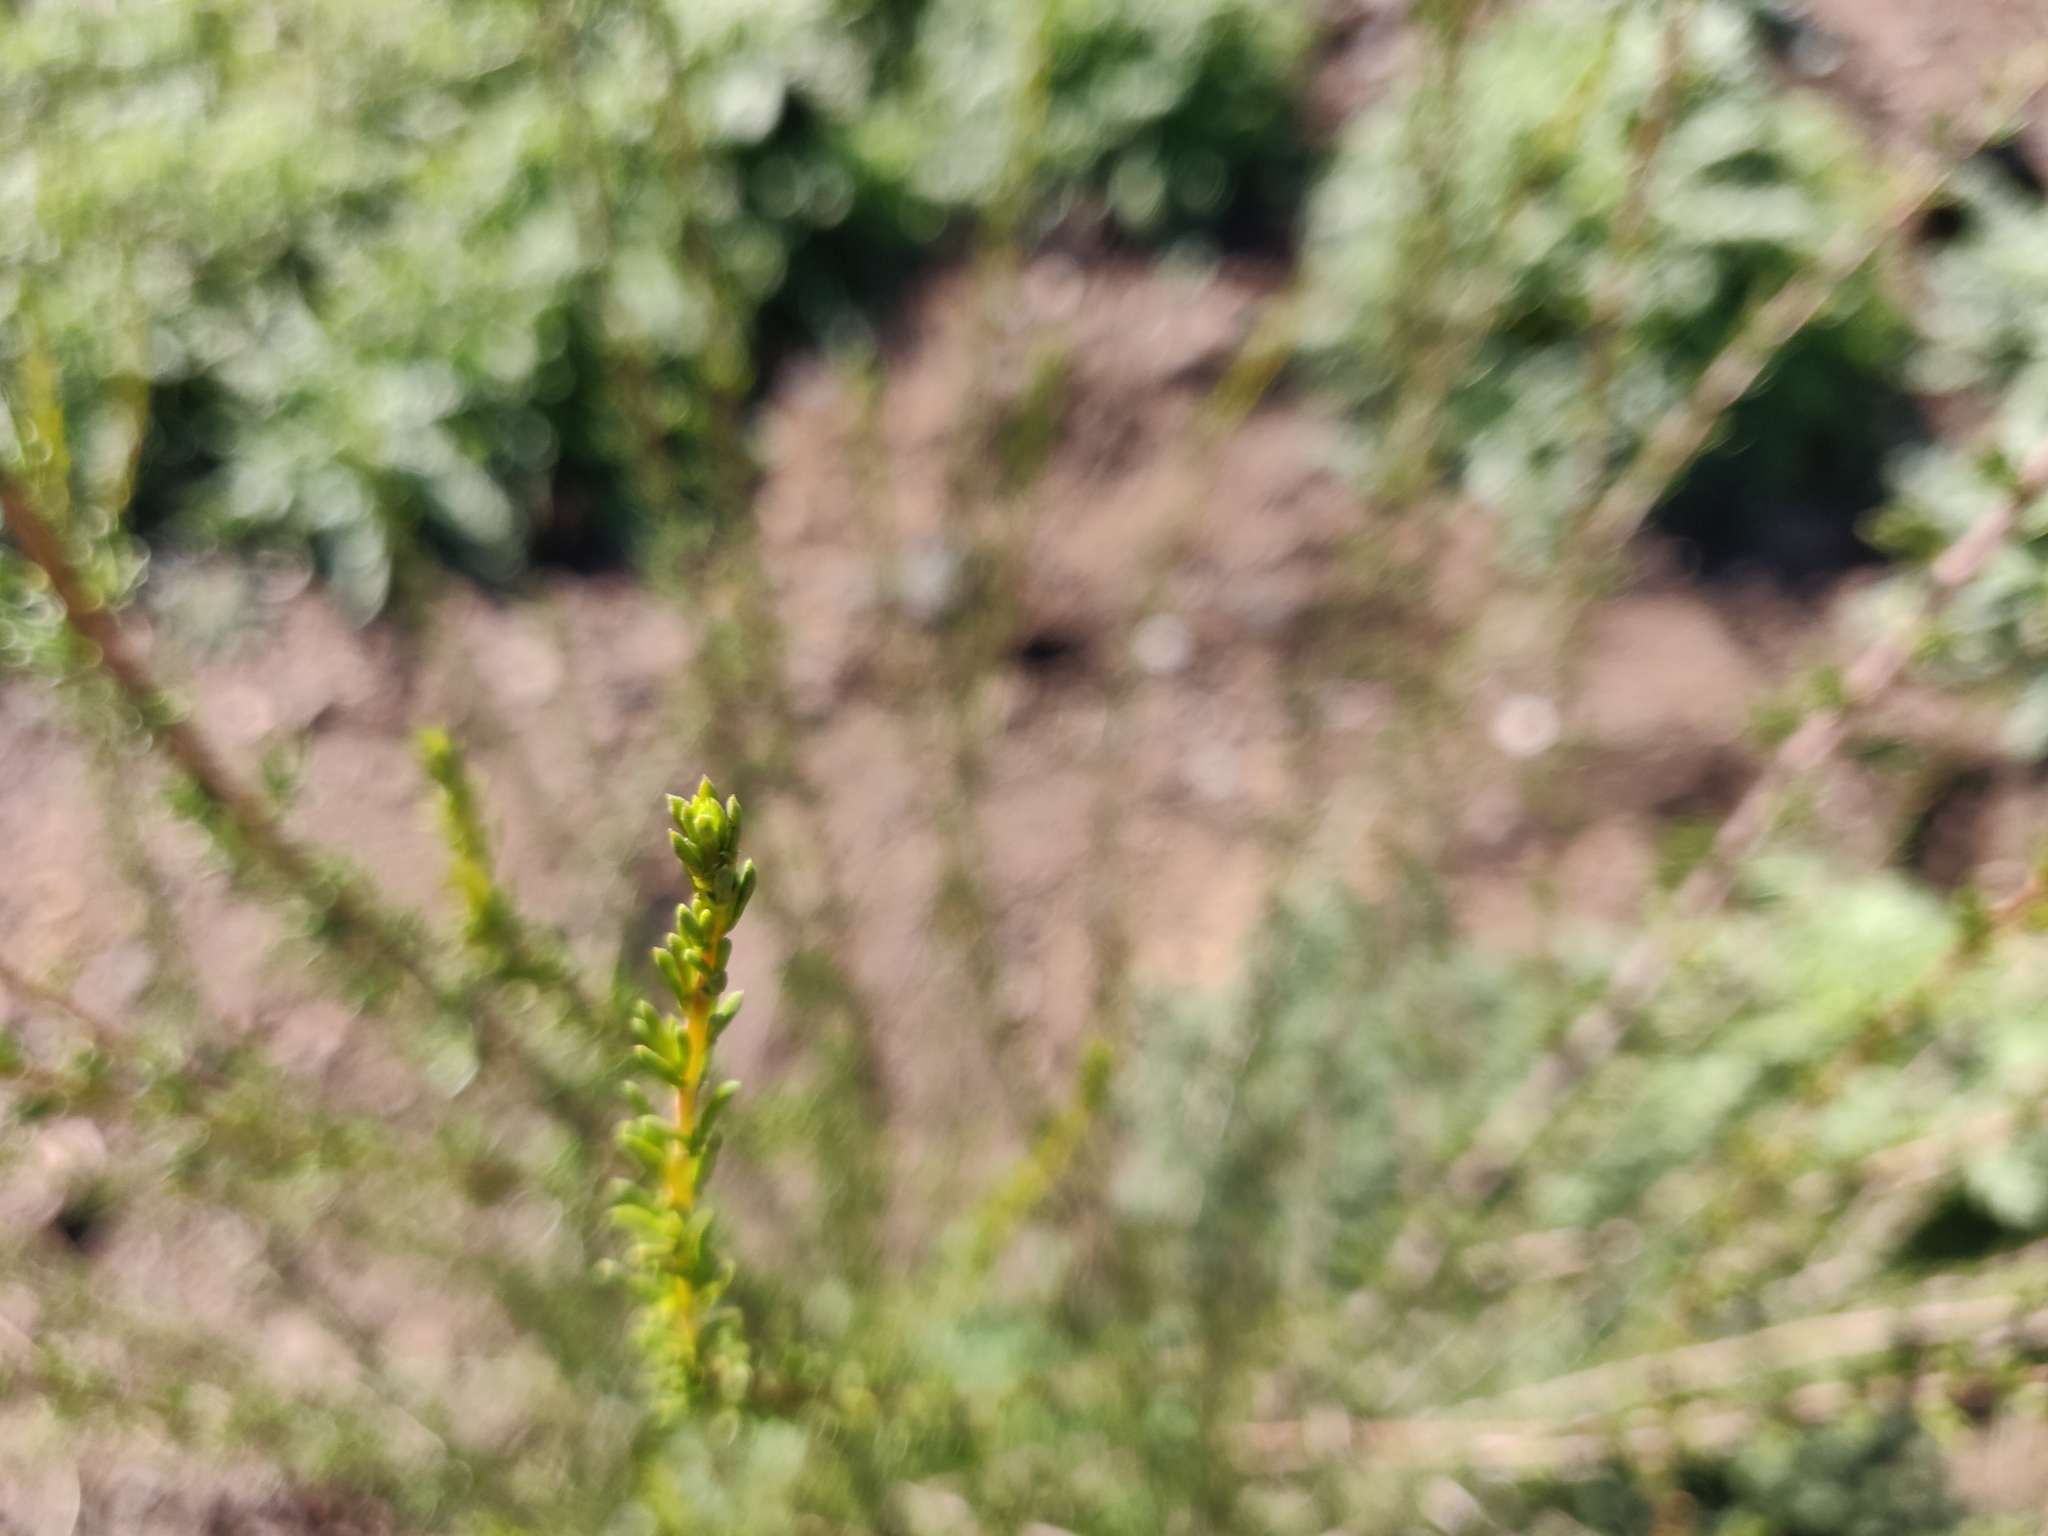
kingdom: Plantae
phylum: Tracheophyta
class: Magnoliopsida
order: Rosales
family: Rosaceae
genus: Adenostoma
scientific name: Adenostoma fasciculatum
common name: Chamise
